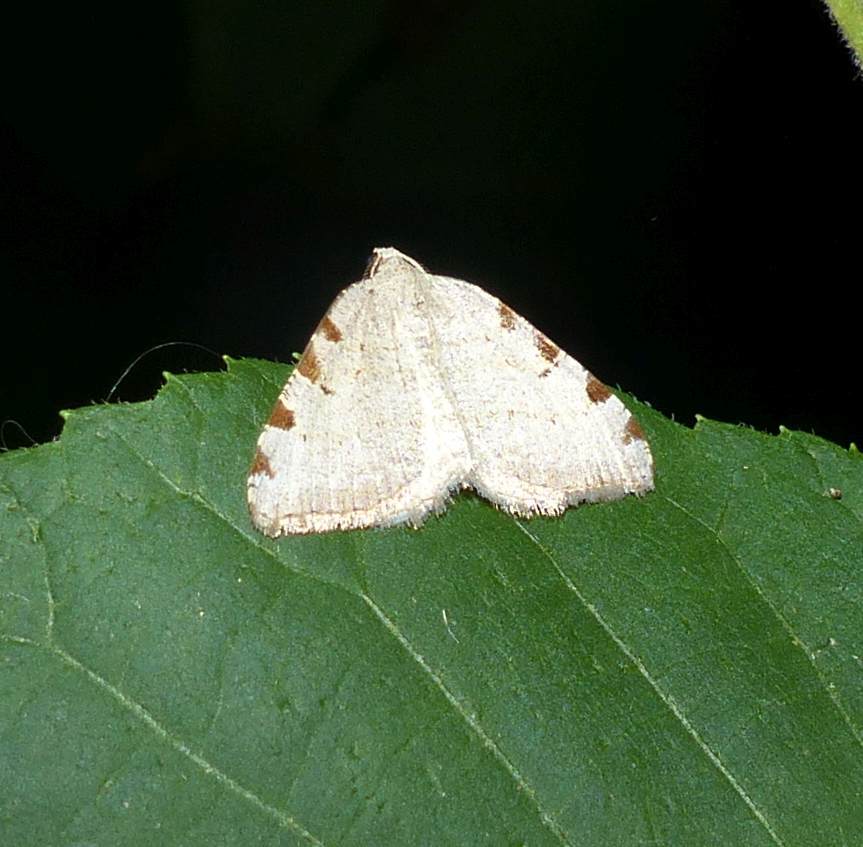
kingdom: Animalia
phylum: Arthropoda
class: Insecta
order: Lepidoptera
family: Geometridae
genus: Macaria
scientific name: Macaria coortaria
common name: Four-spotted granite
